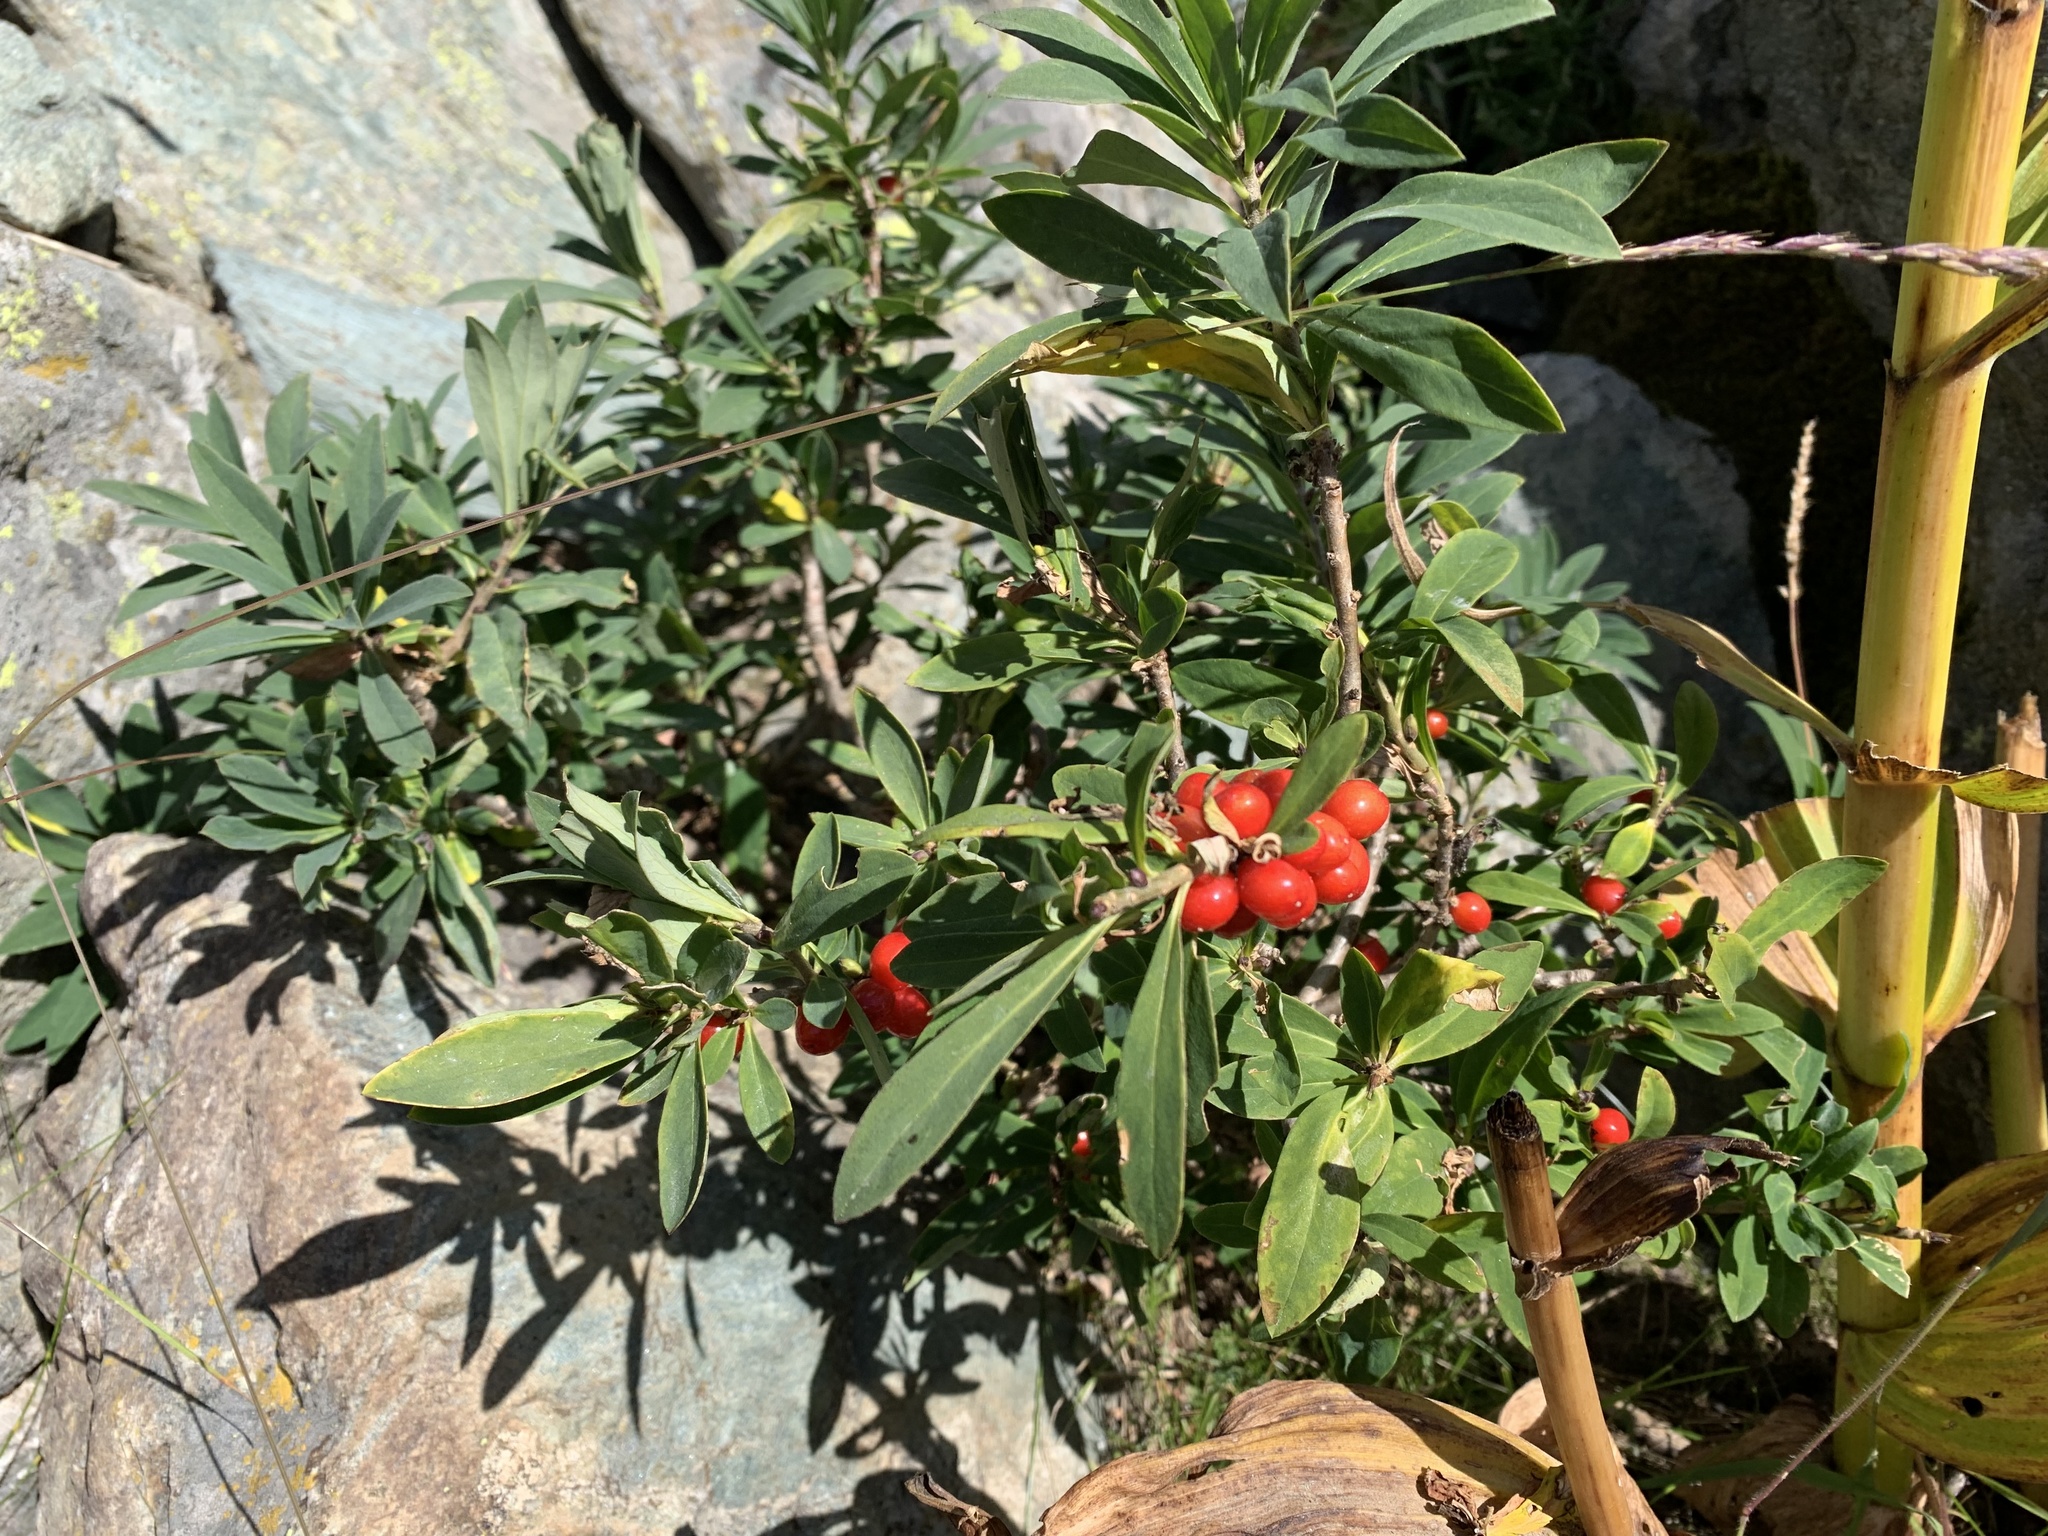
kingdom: Plantae
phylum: Tracheophyta
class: Magnoliopsida
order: Malvales
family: Thymelaeaceae
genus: Daphne
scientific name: Daphne mezereum
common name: Mezereon
